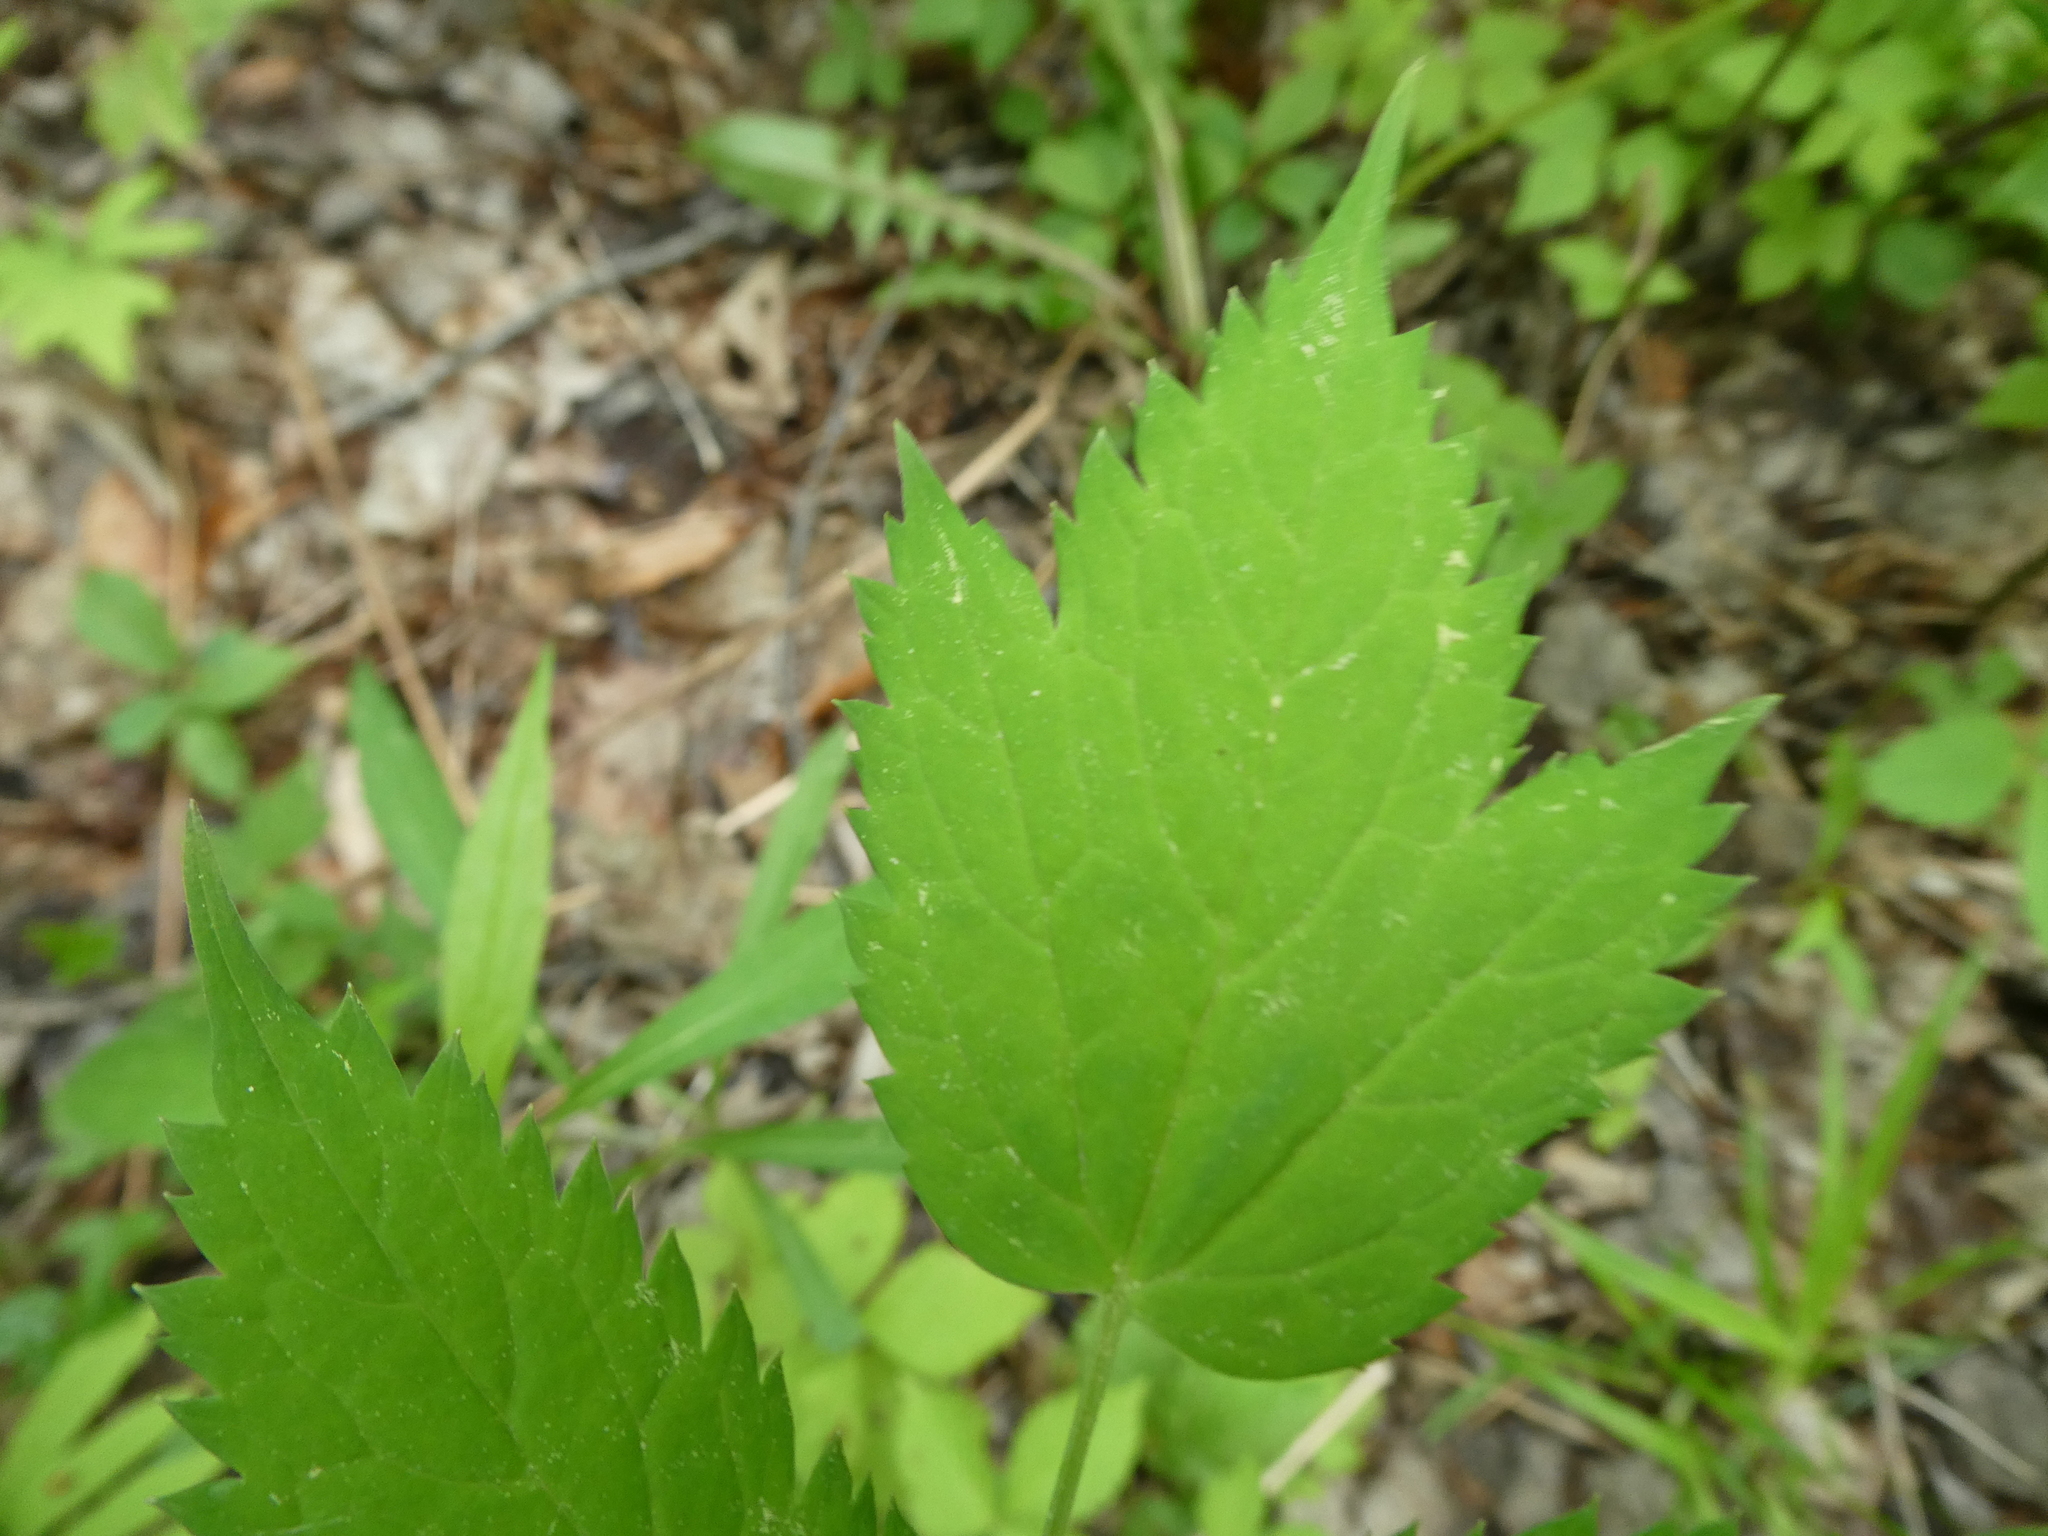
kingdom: Plantae
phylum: Tracheophyta
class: Magnoliopsida
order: Ranunculales
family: Ranunculaceae
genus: Actaea
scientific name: Actaea pachypoda
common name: Doll's-eyes
